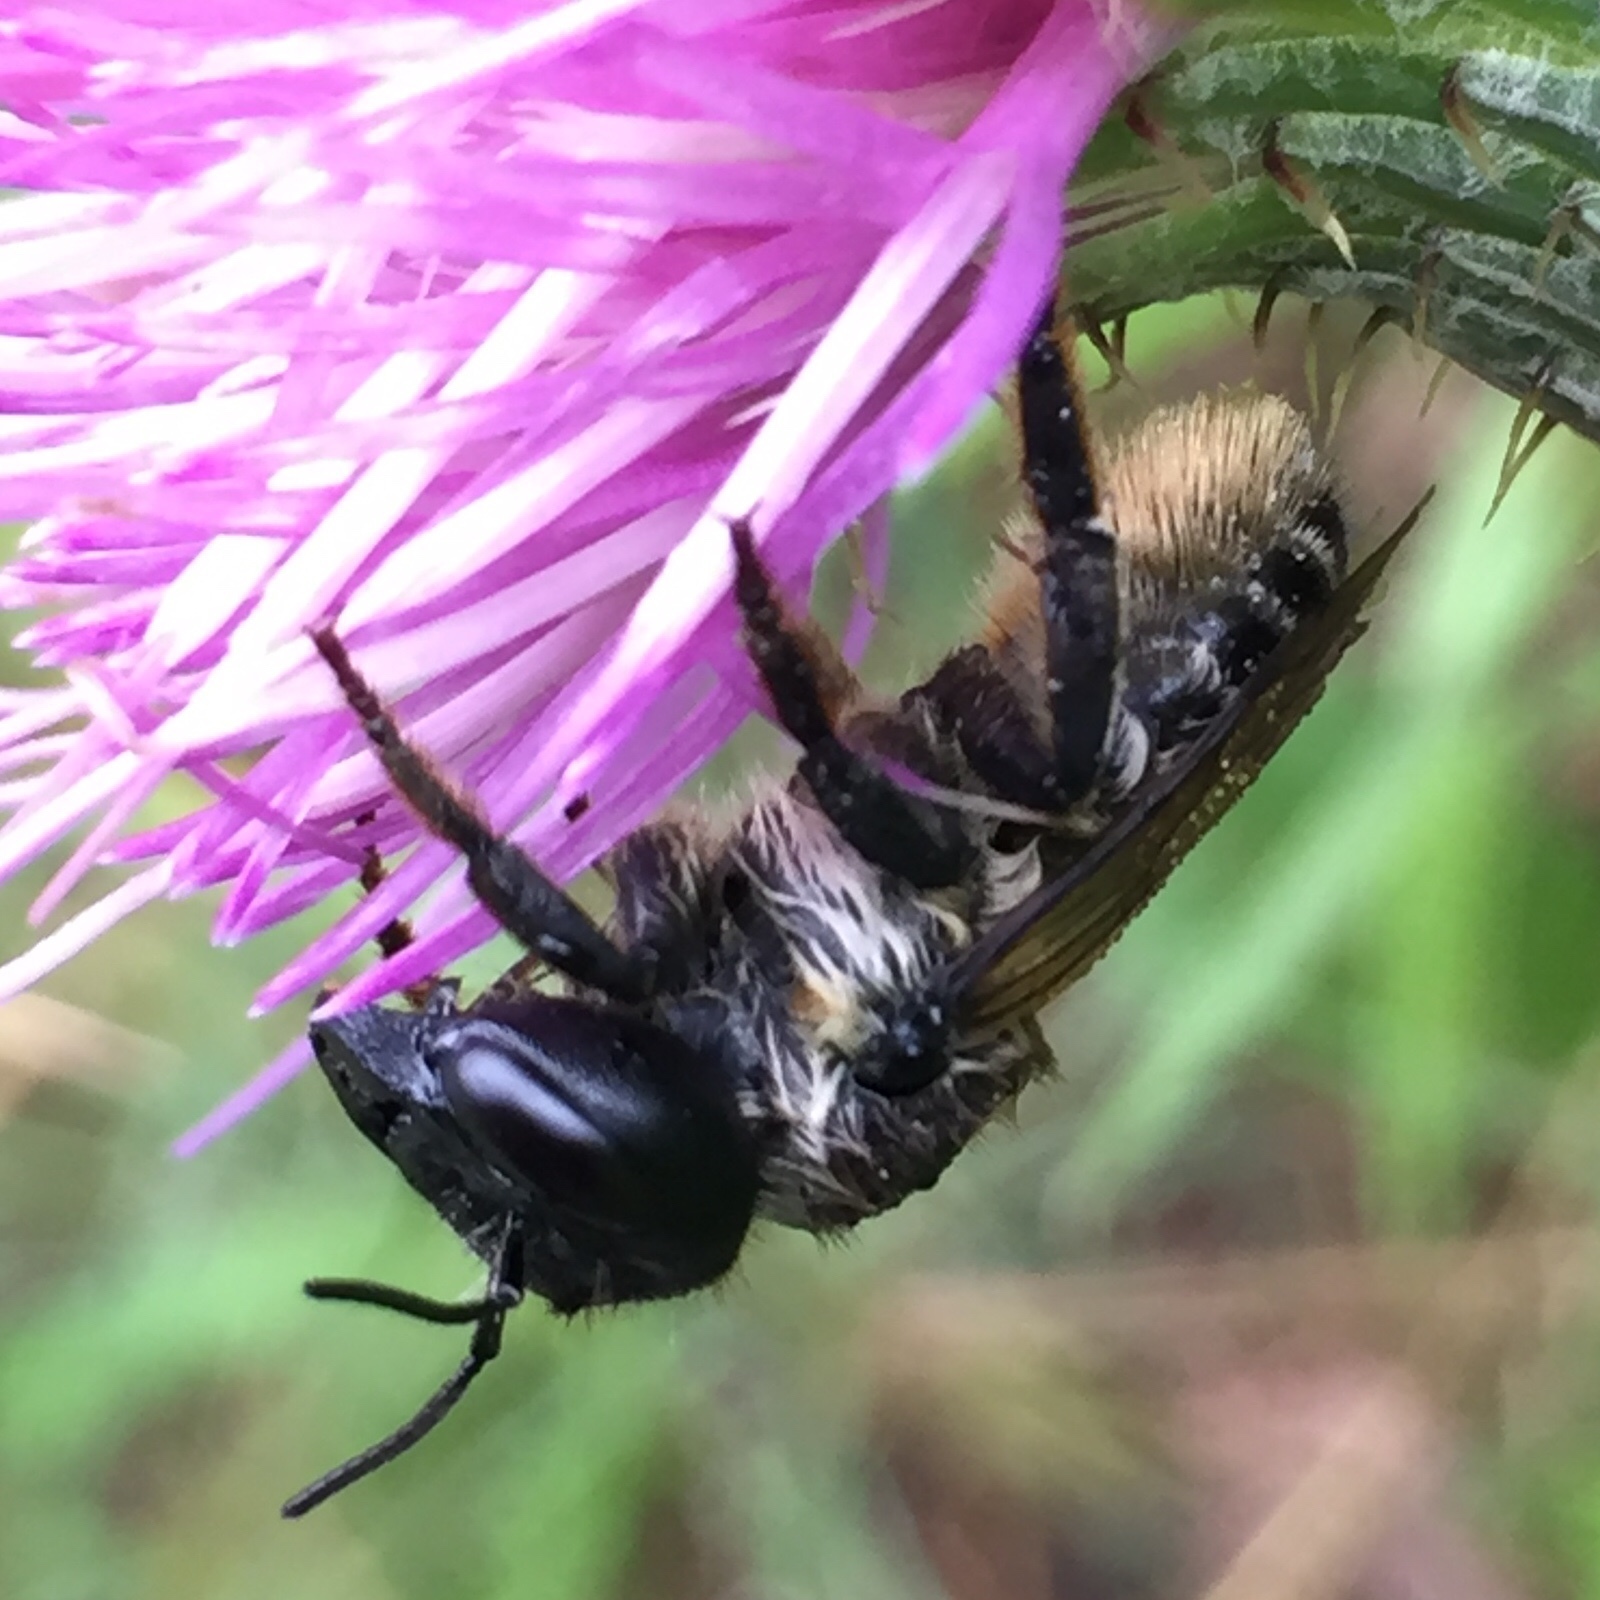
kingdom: Animalia
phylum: Arthropoda
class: Insecta
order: Hymenoptera
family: Megachilidae
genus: Megachile
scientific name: Megachile inermis
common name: Unarmed leafcutter bee
